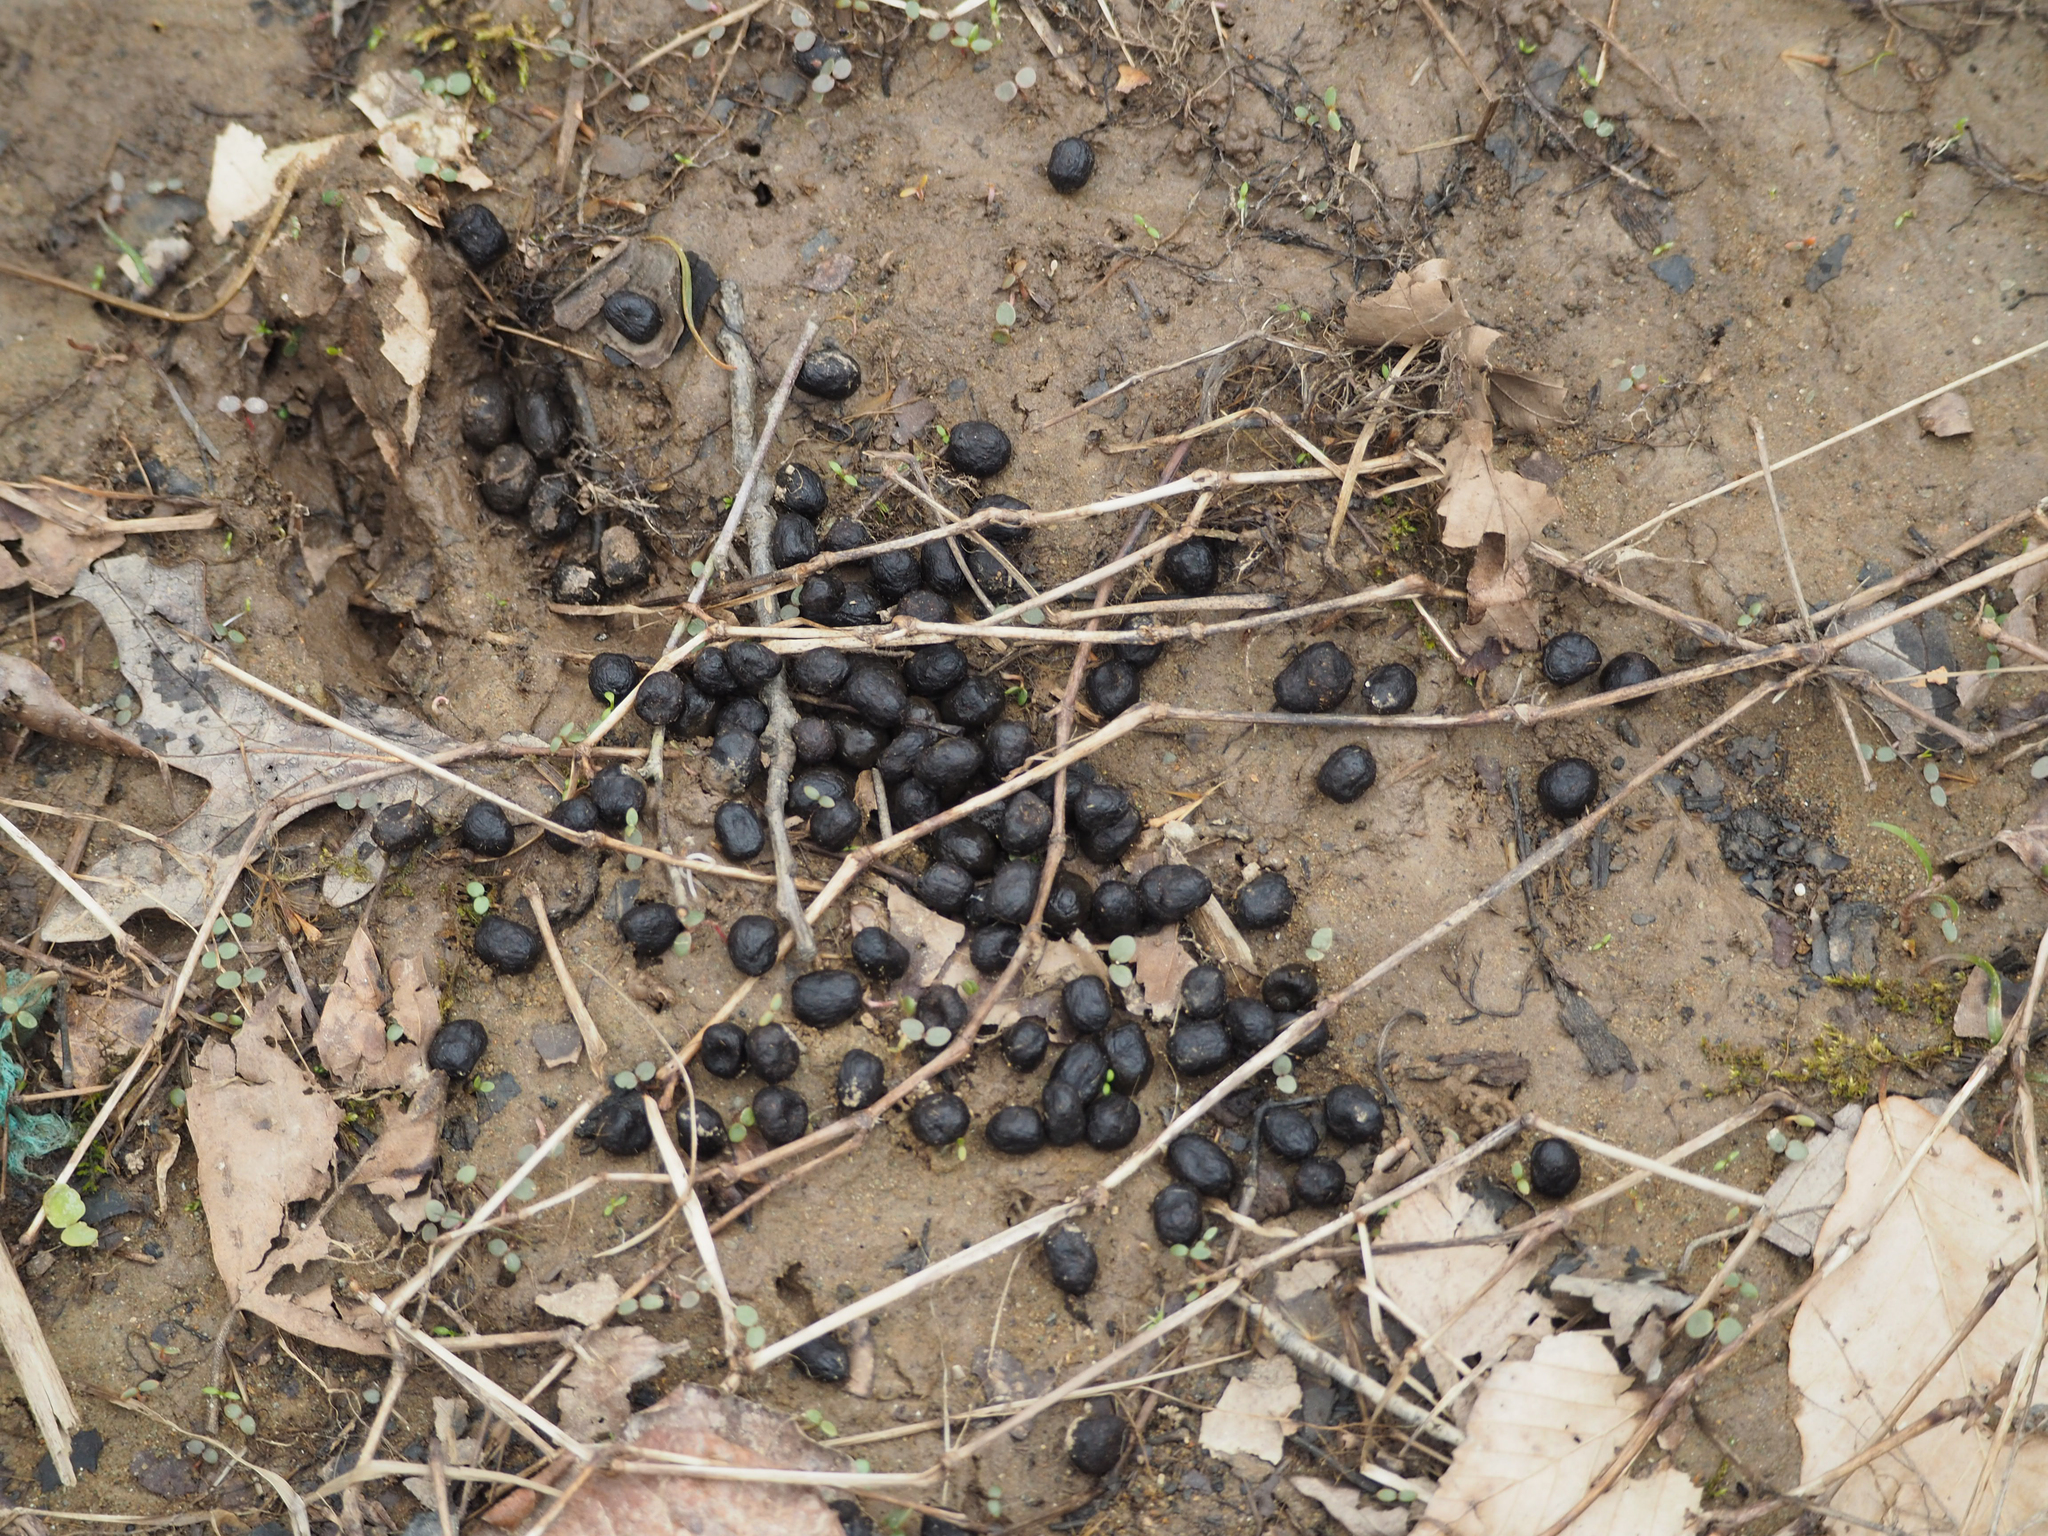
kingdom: Animalia
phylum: Chordata
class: Mammalia
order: Artiodactyla
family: Cervidae
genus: Odocoileus
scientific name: Odocoileus virginianus
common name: White-tailed deer
